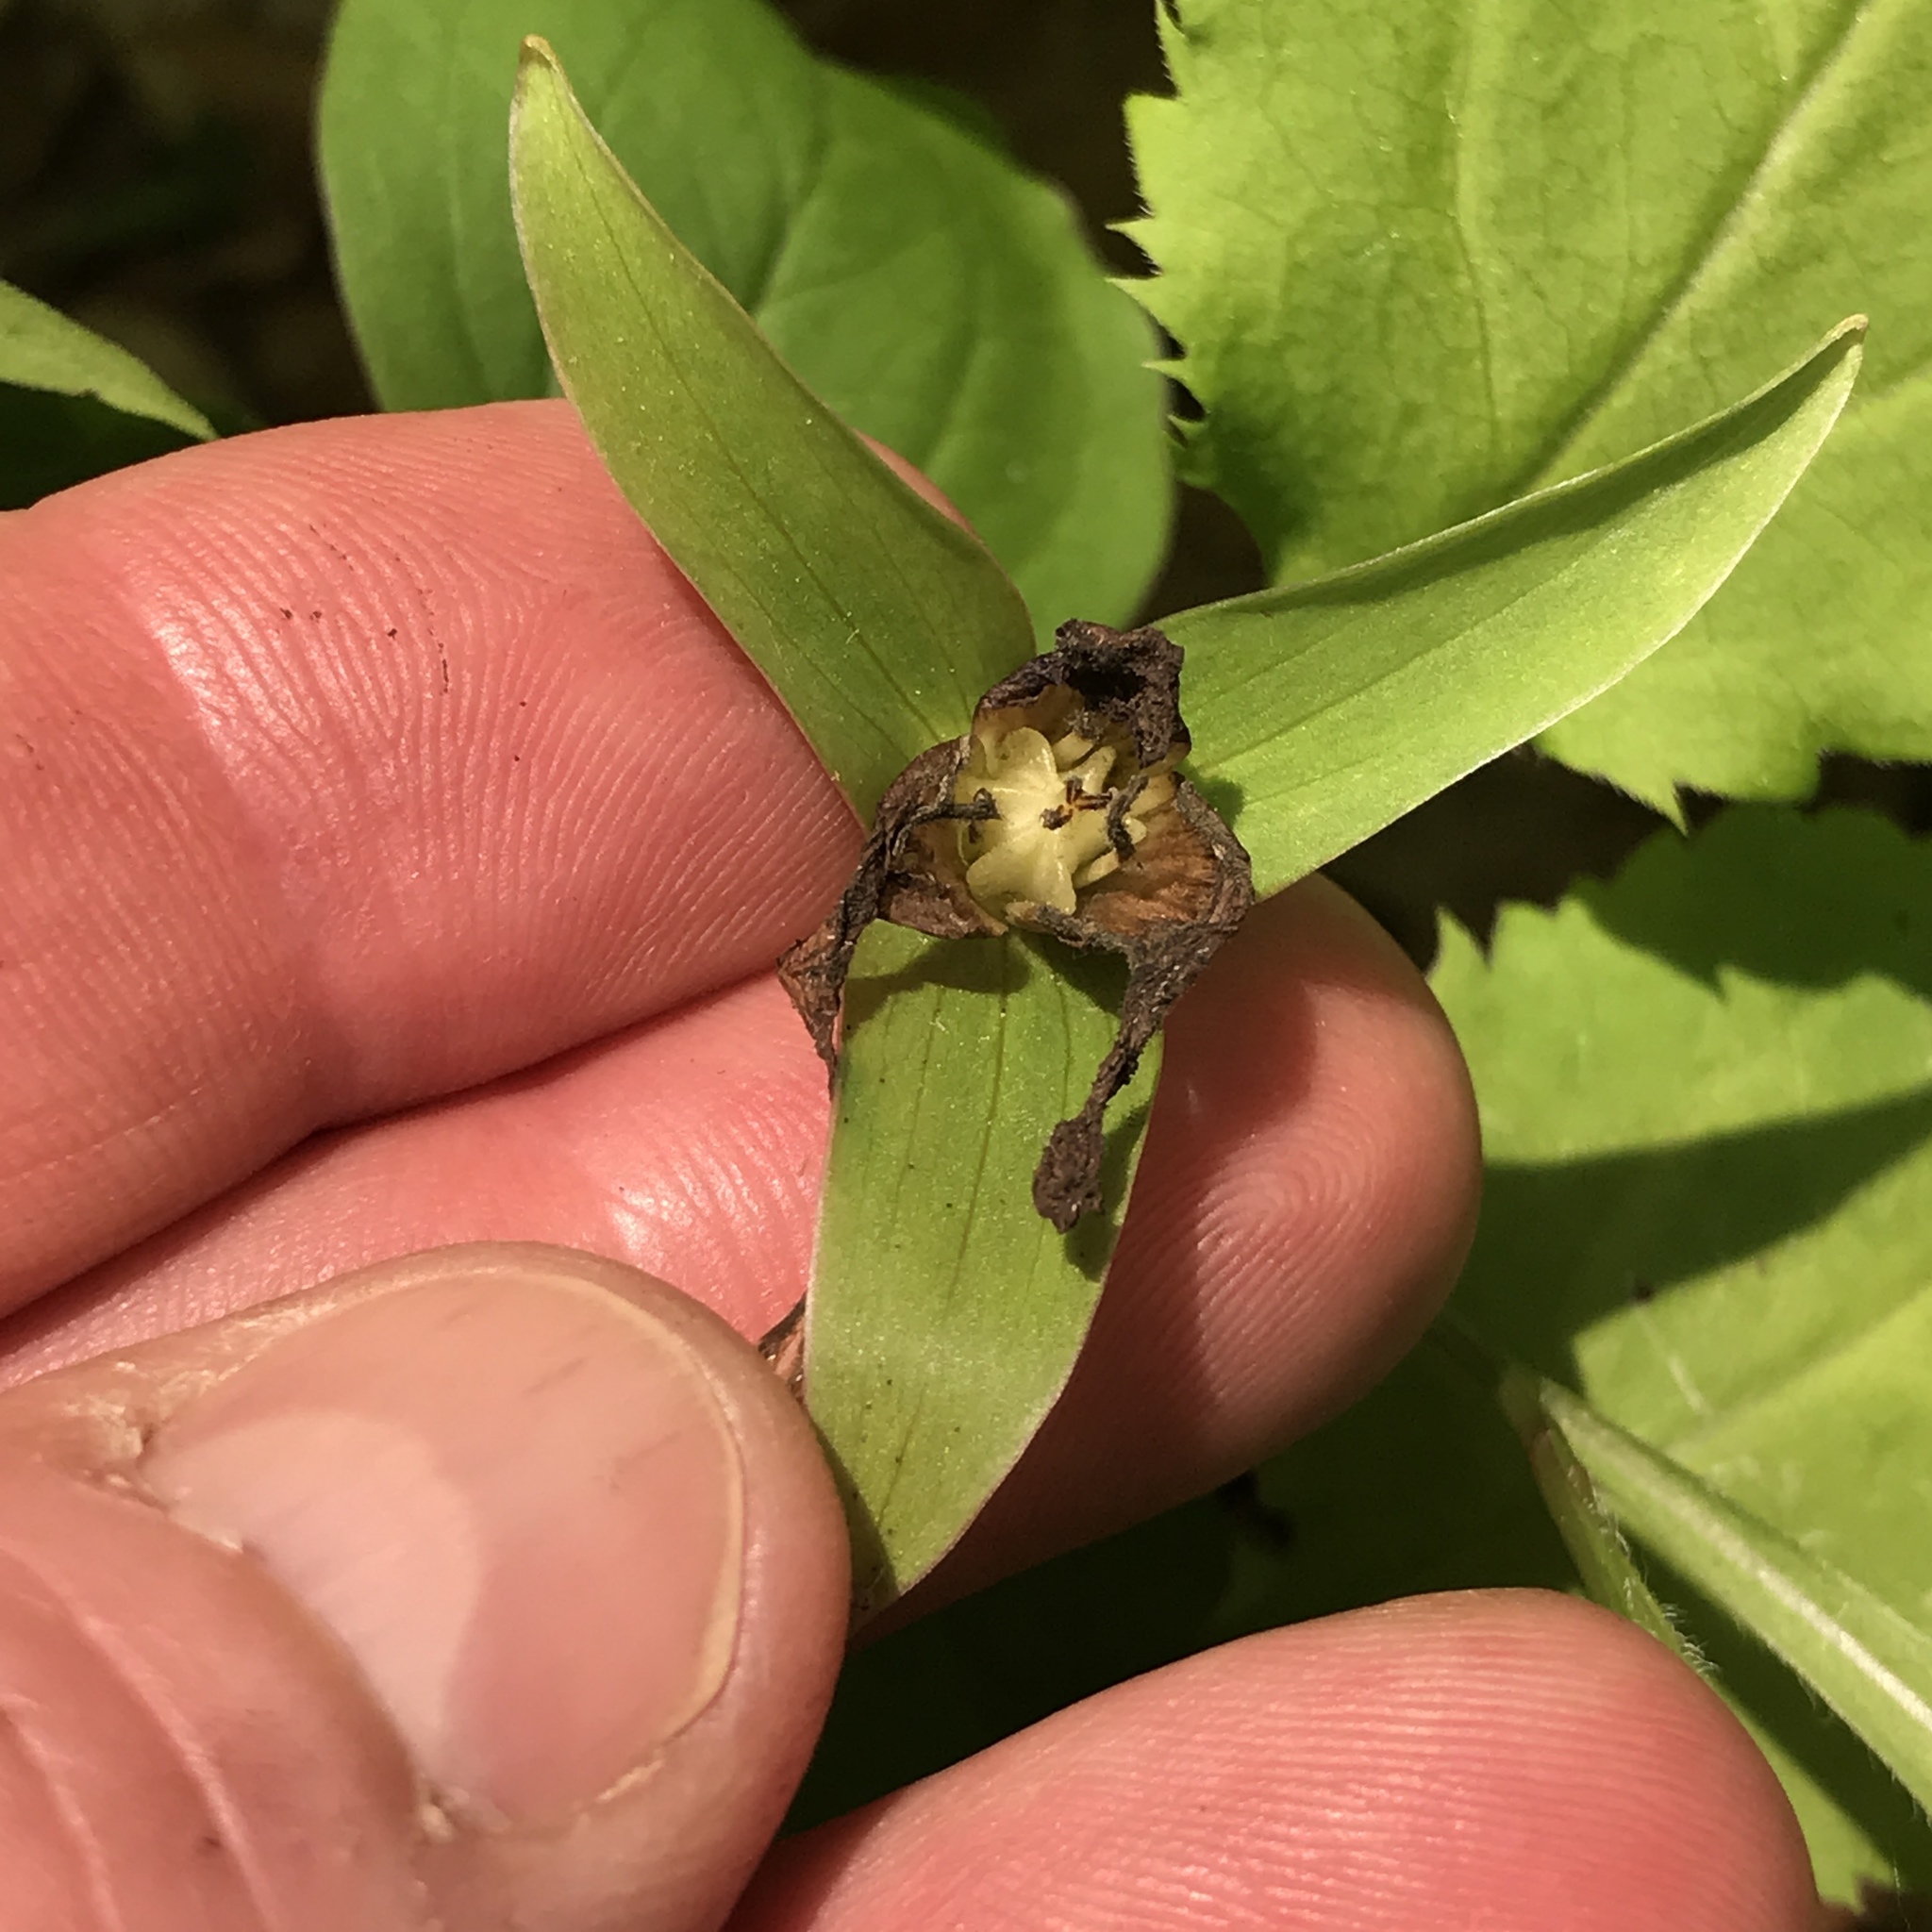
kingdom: Plantae
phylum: Tracheophyta
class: Liliopsida
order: Liliales
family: Melanthiaceae
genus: Trillium
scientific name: Trillium grandiflorum
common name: Great white trillium
